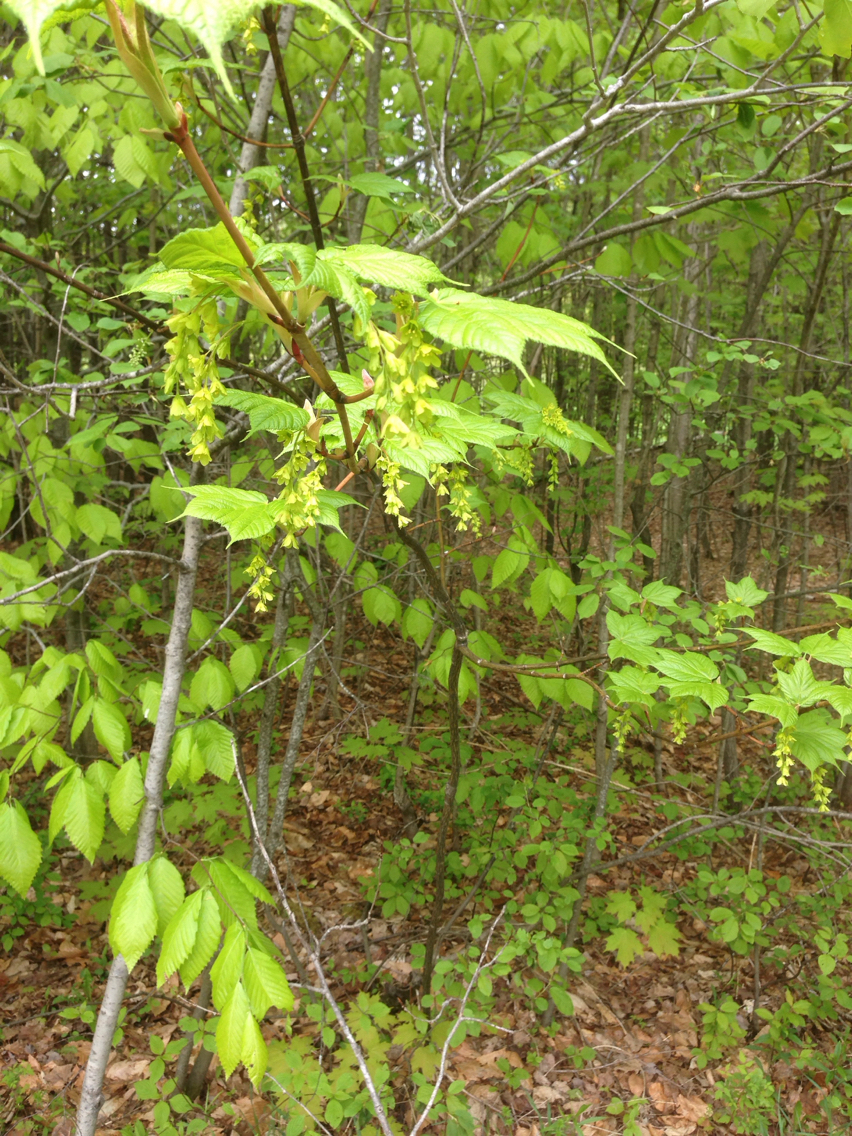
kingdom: Plantae
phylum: Tracheophyta
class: Magnoliopsida
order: Sapindales
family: Sapindaceae
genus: Acer
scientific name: Acer pensylvanicum
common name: Moosewood
